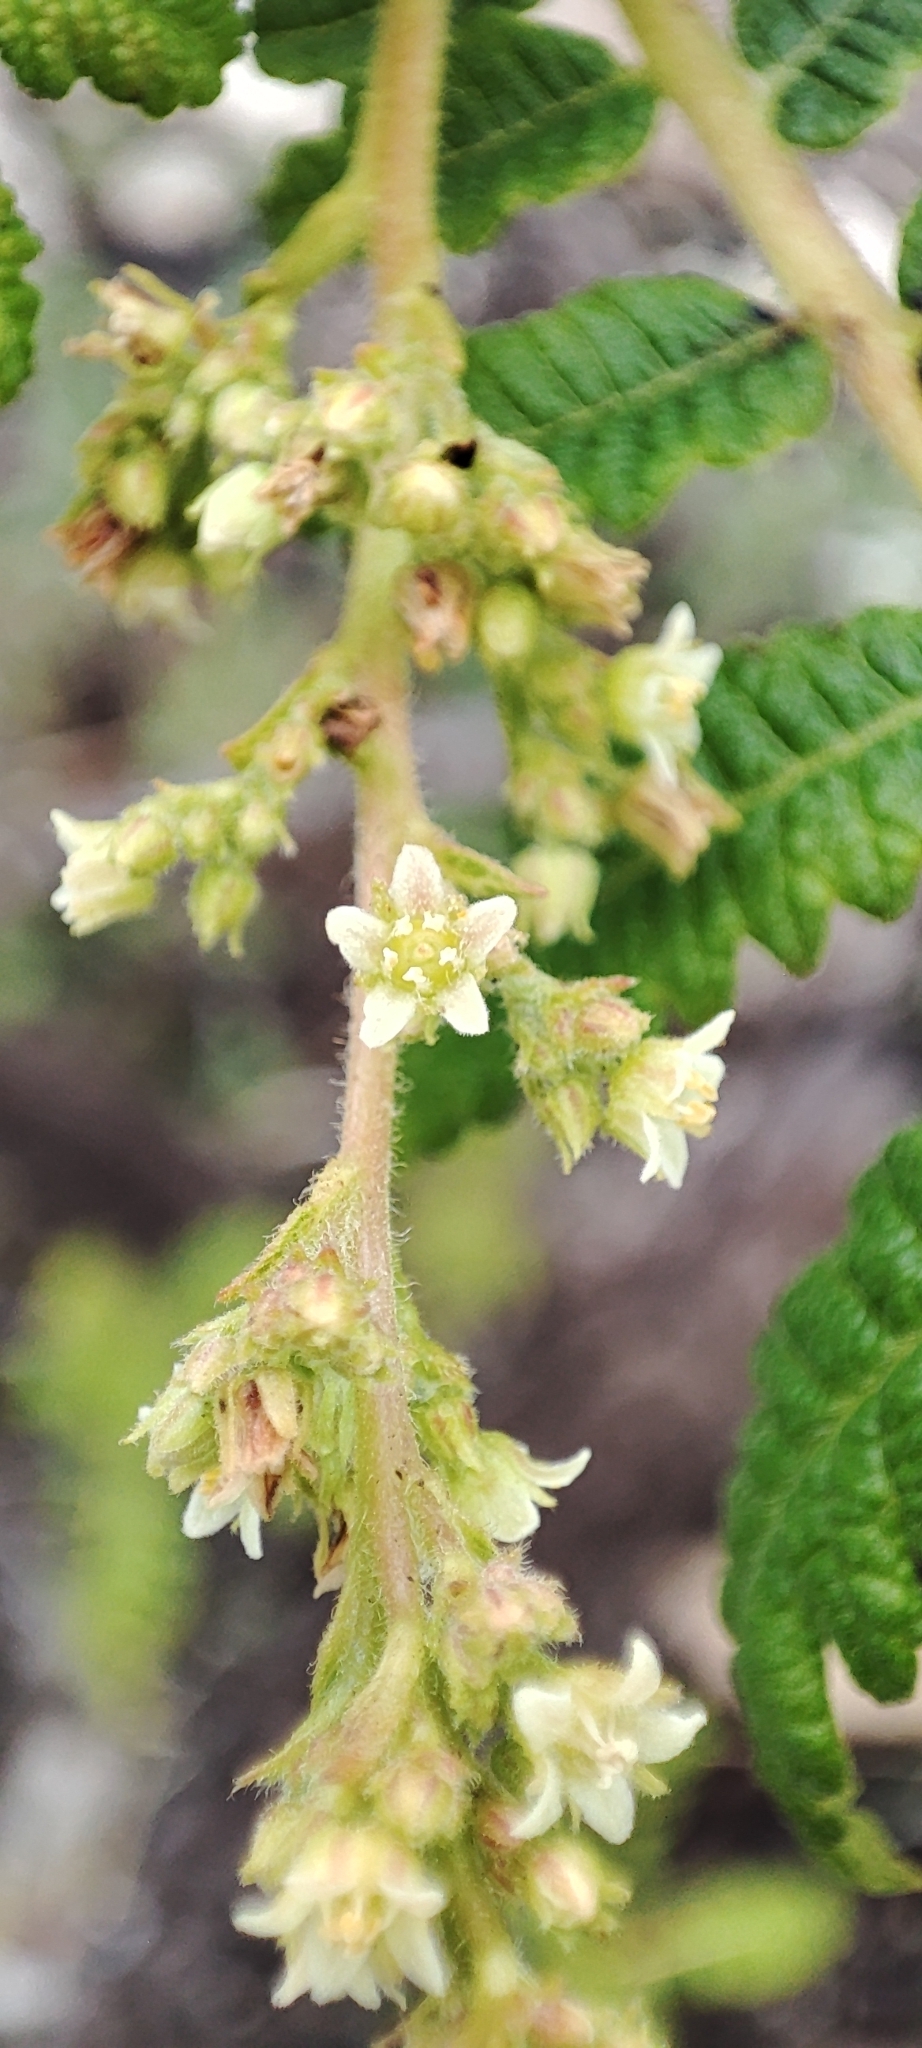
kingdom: Plantae
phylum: Tracheophyta
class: Magnoliopsida
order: Sapindales
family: Anacardiaceae
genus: Actinocheita
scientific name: Actinocheita filicina
